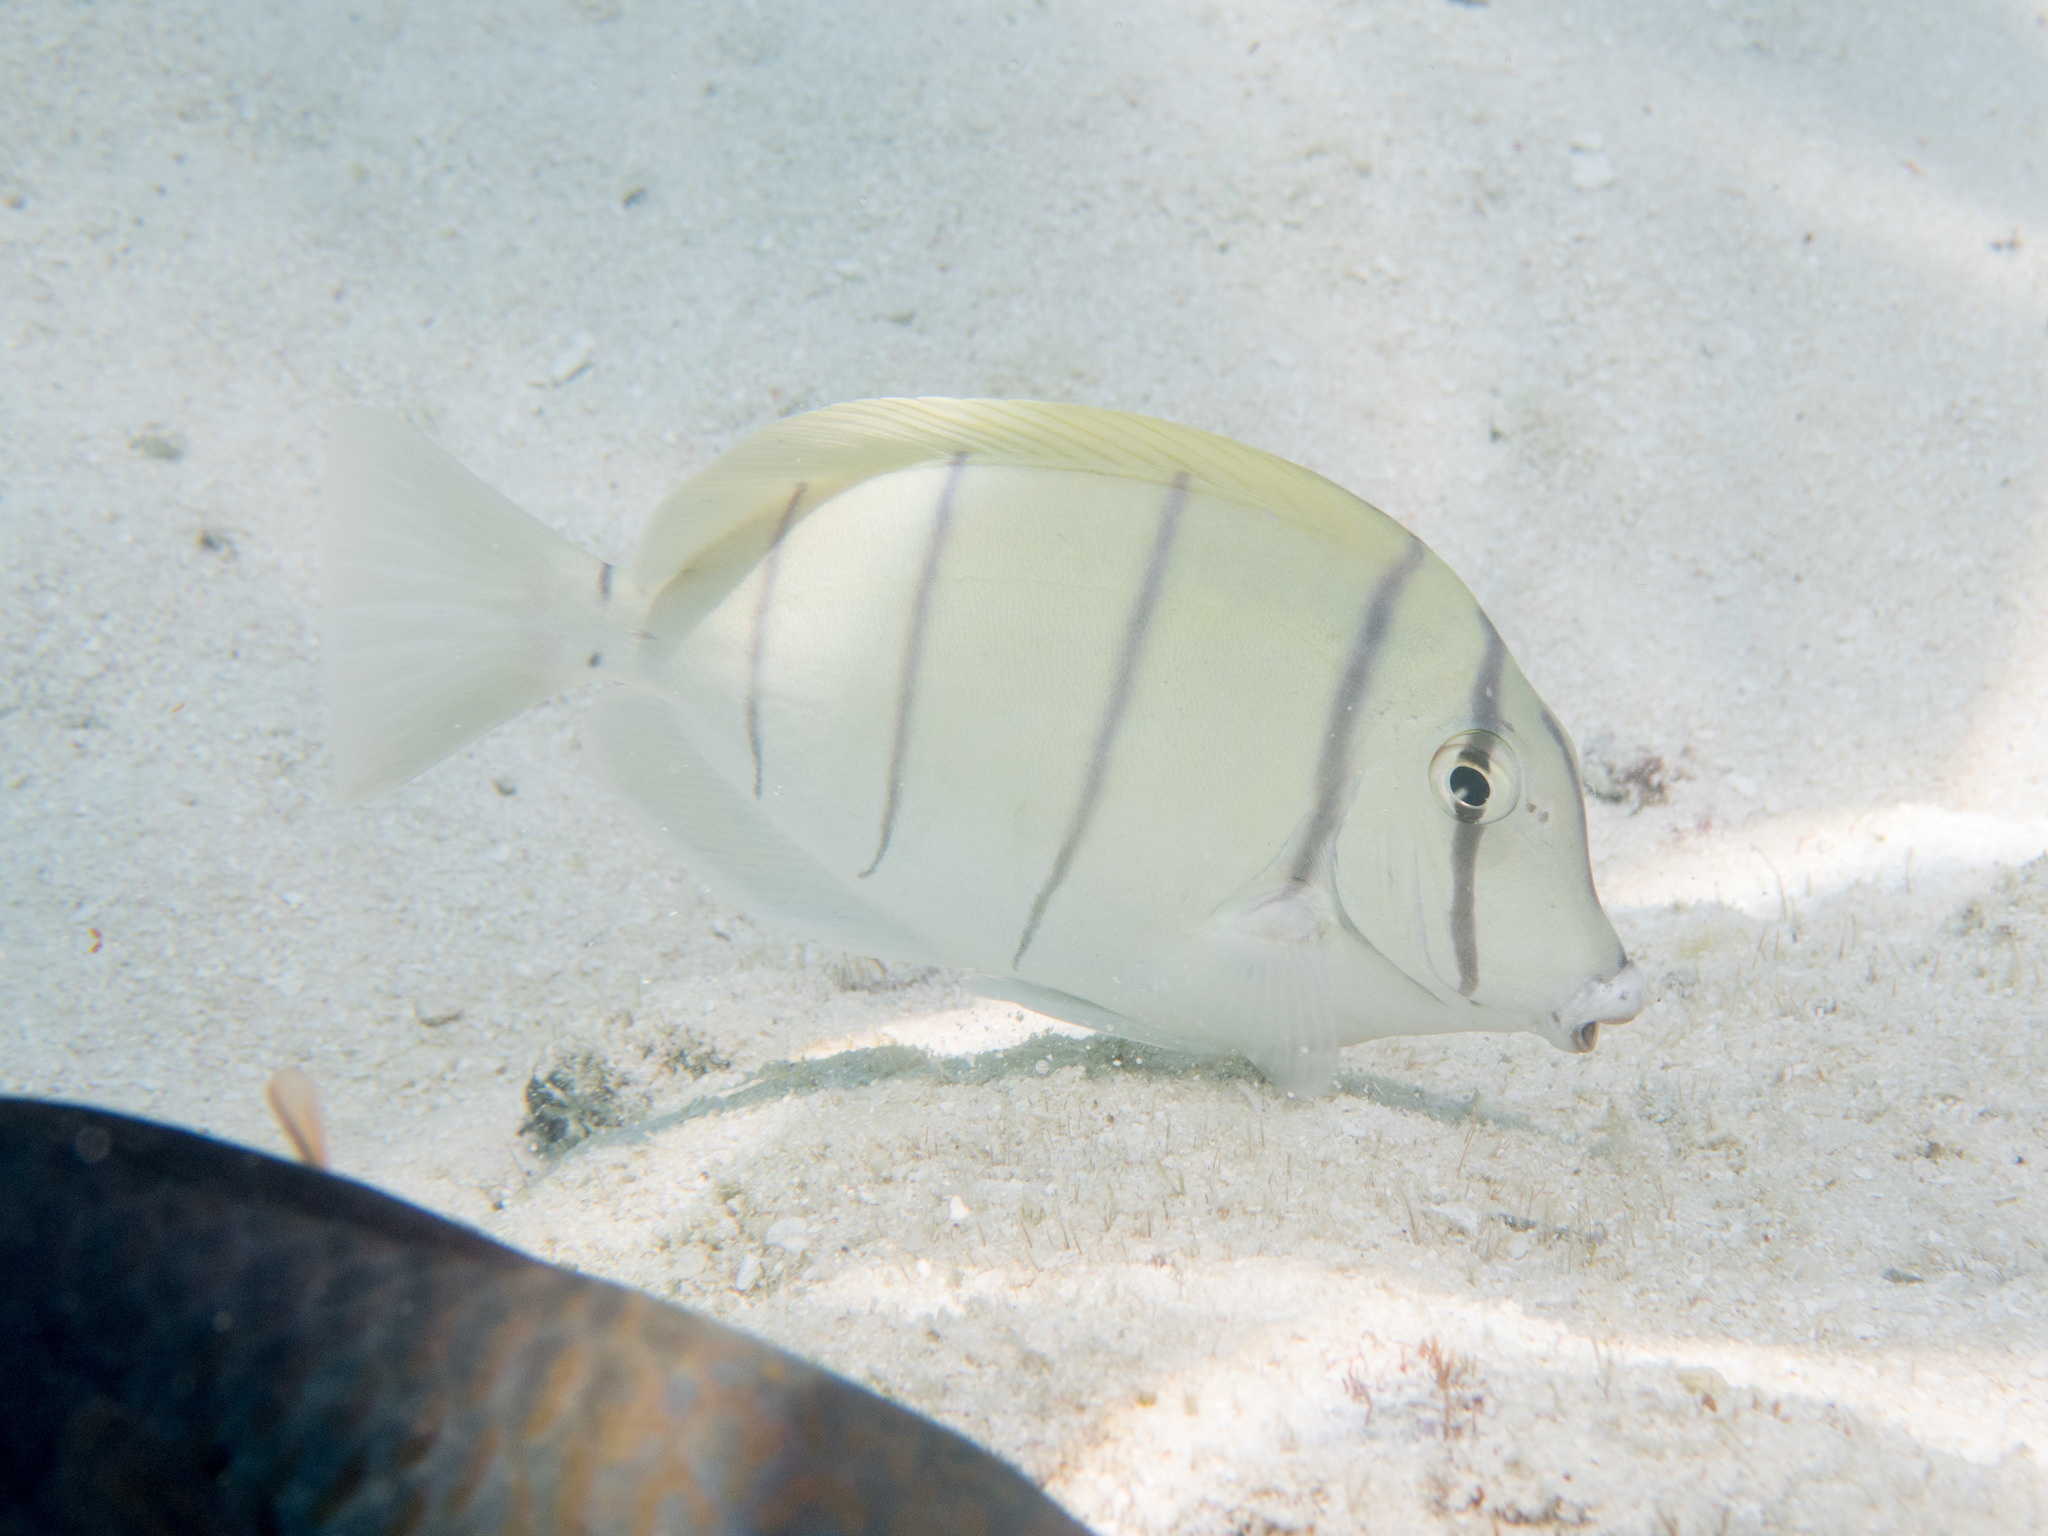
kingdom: Animalia
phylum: Chordata
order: Perciformes
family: Acanthuridae
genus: Acanthurus
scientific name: Acanthurus triostegus
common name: Convict surgeonfish
